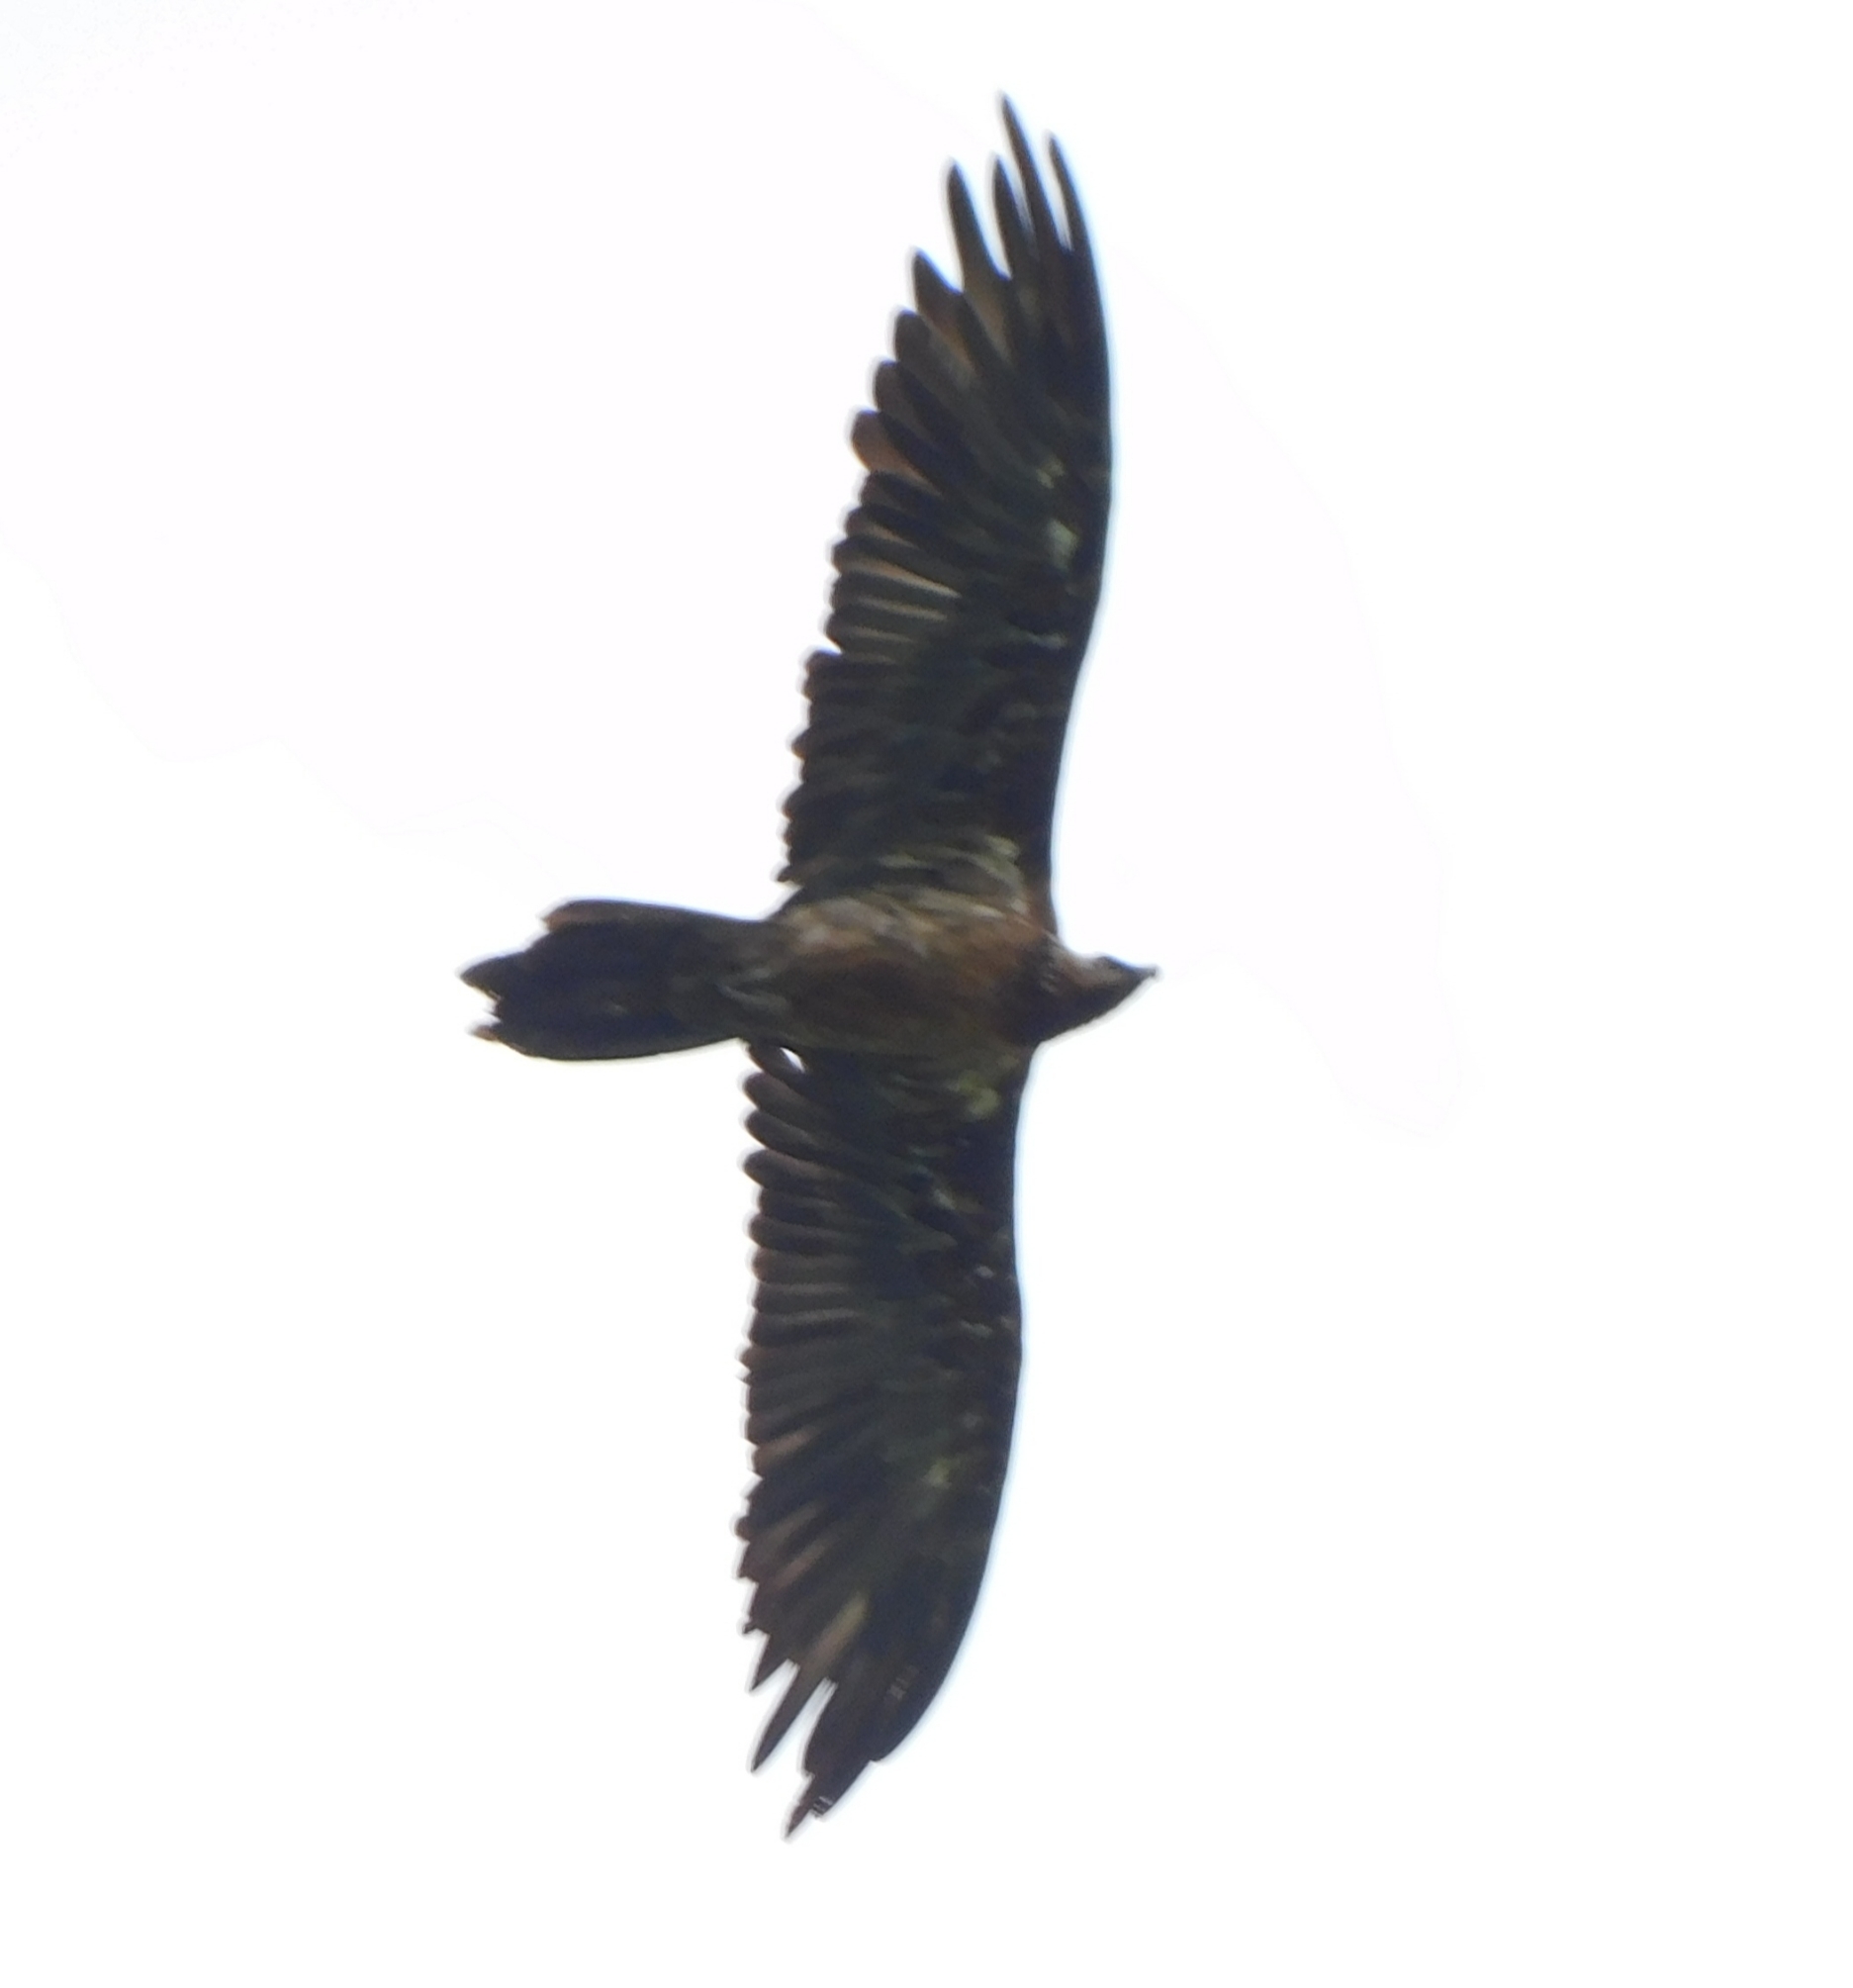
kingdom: Animalia
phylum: Chordata
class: Aves
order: Accipitriformes
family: Accipitridae
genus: Gypaetus
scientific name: Gypaetus barbatus
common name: Bearded vulture
